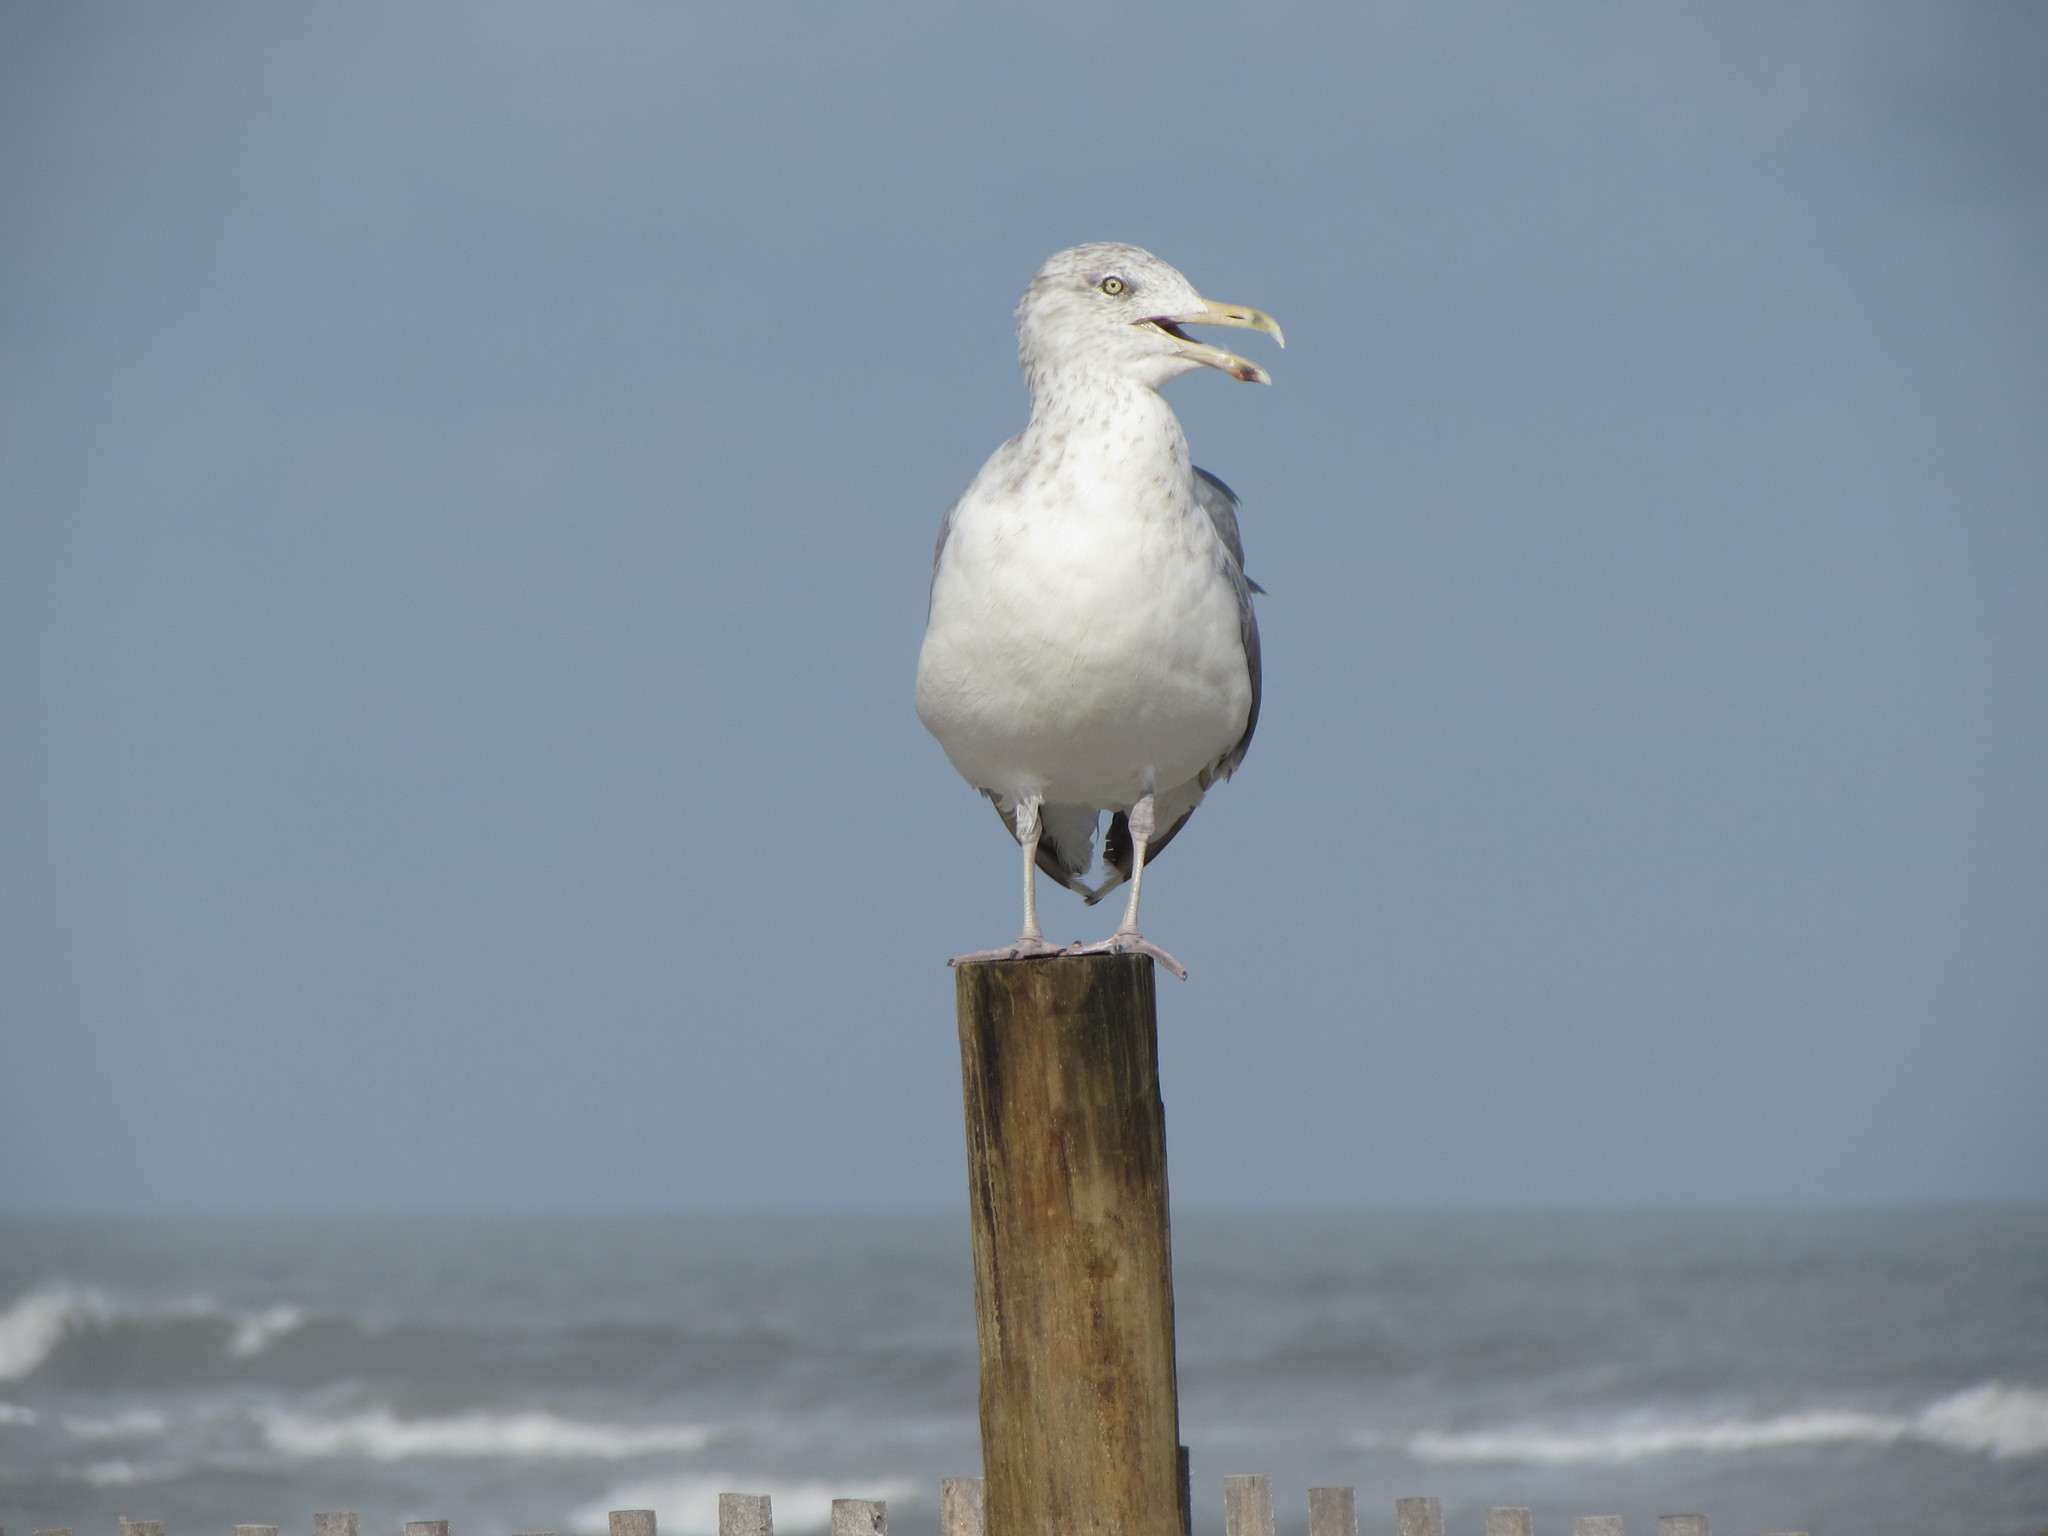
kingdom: Animalia
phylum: Chordata
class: Aves
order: Charadriiformes
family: Laridae
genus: Larus
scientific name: Larus argentatus
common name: Herring gull
